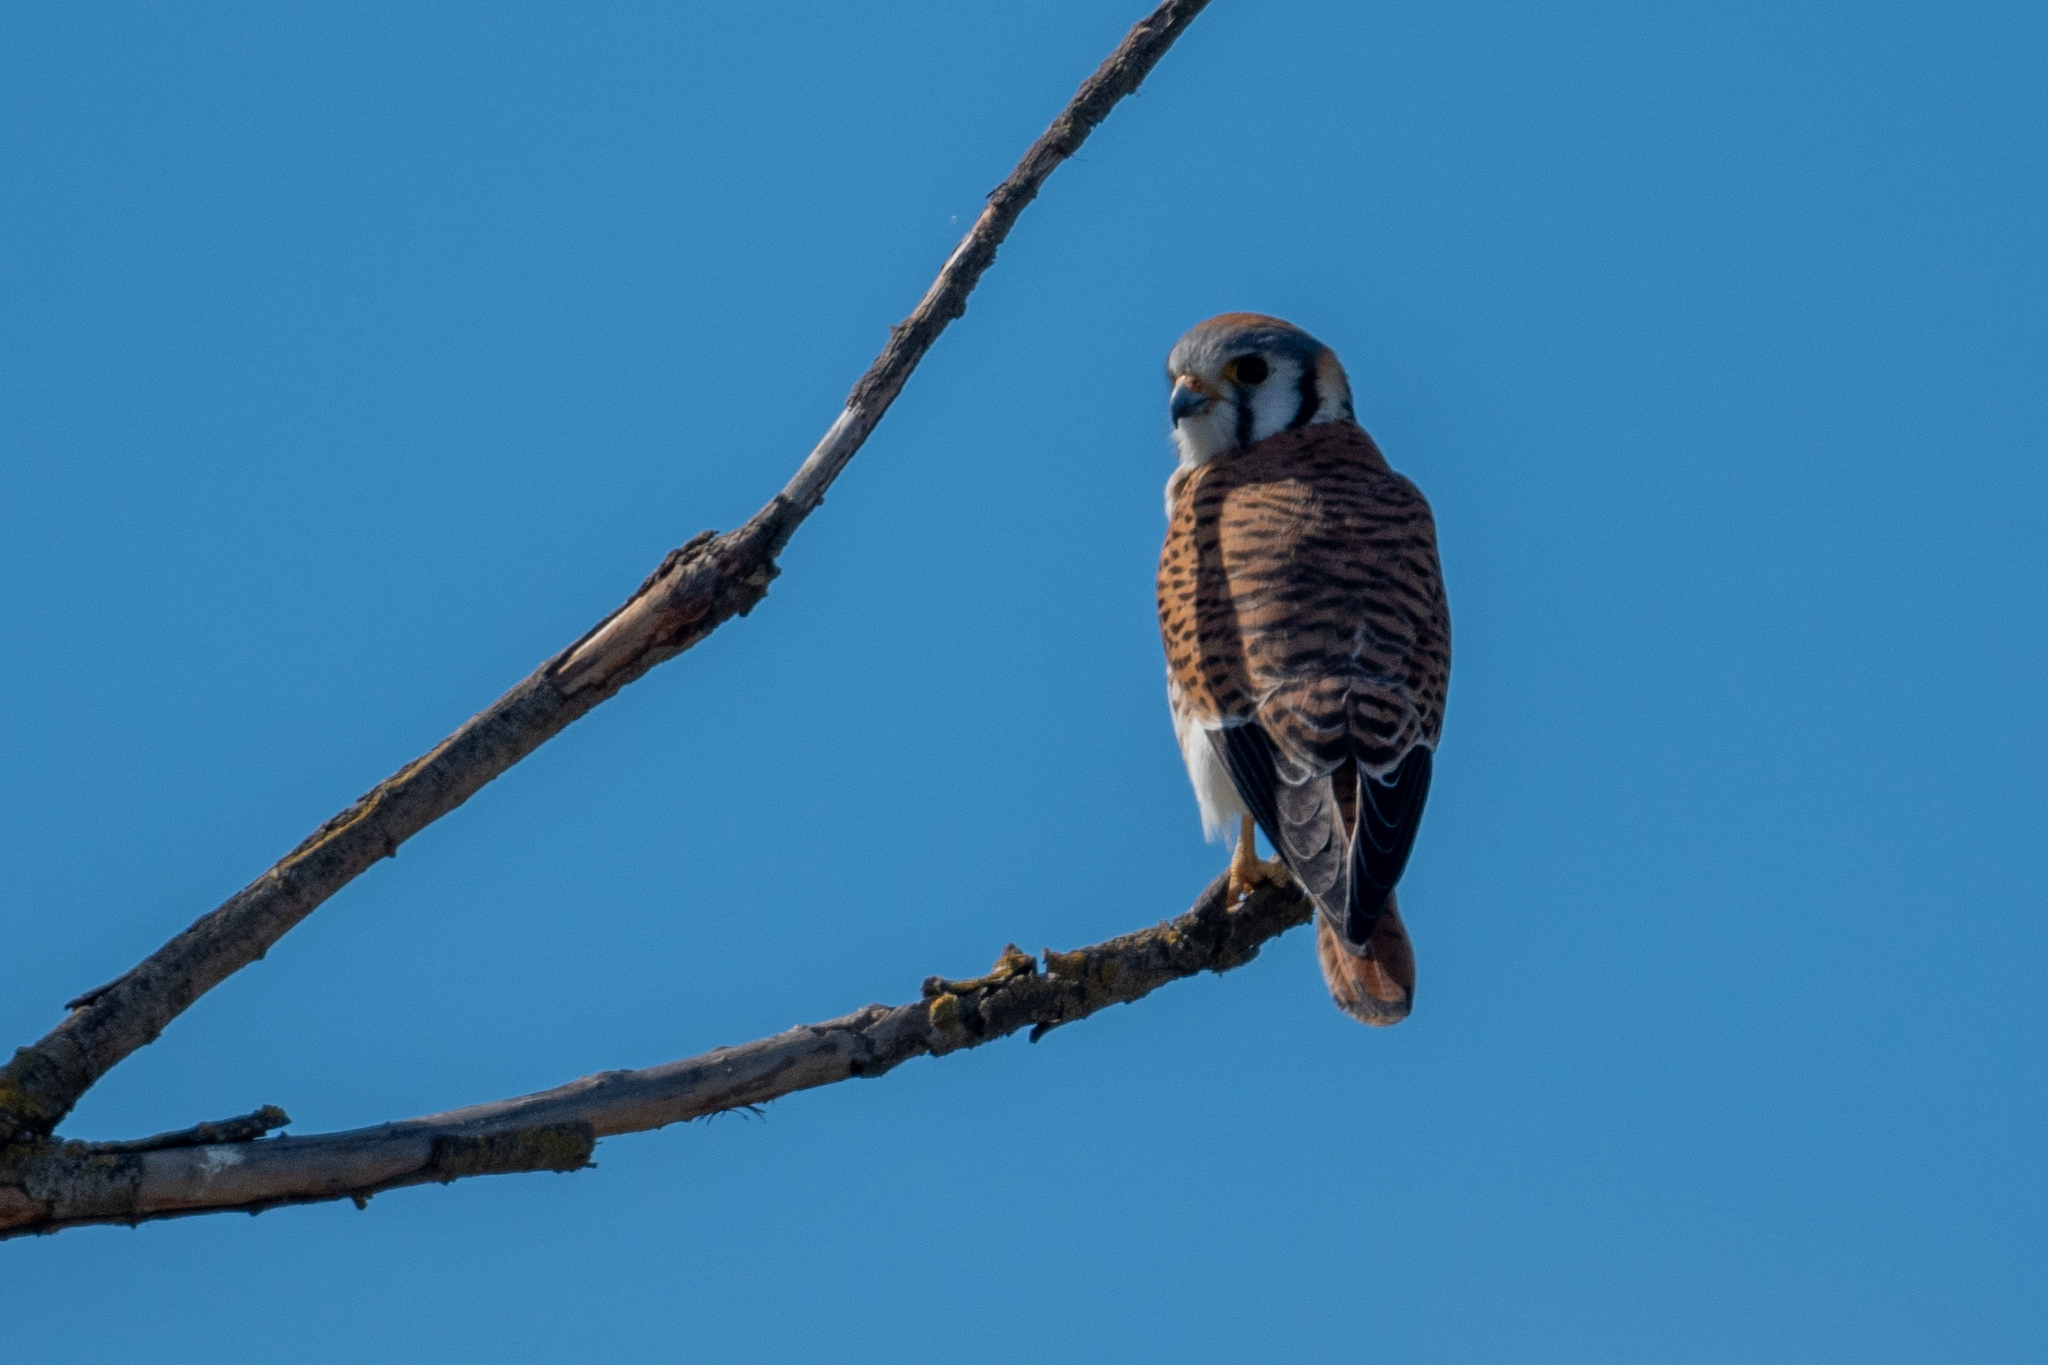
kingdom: Animalia
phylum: Chordata
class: Aves
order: Falconiformes
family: Falconidae
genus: Falco
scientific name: Falco sparverius
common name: American kestrel
